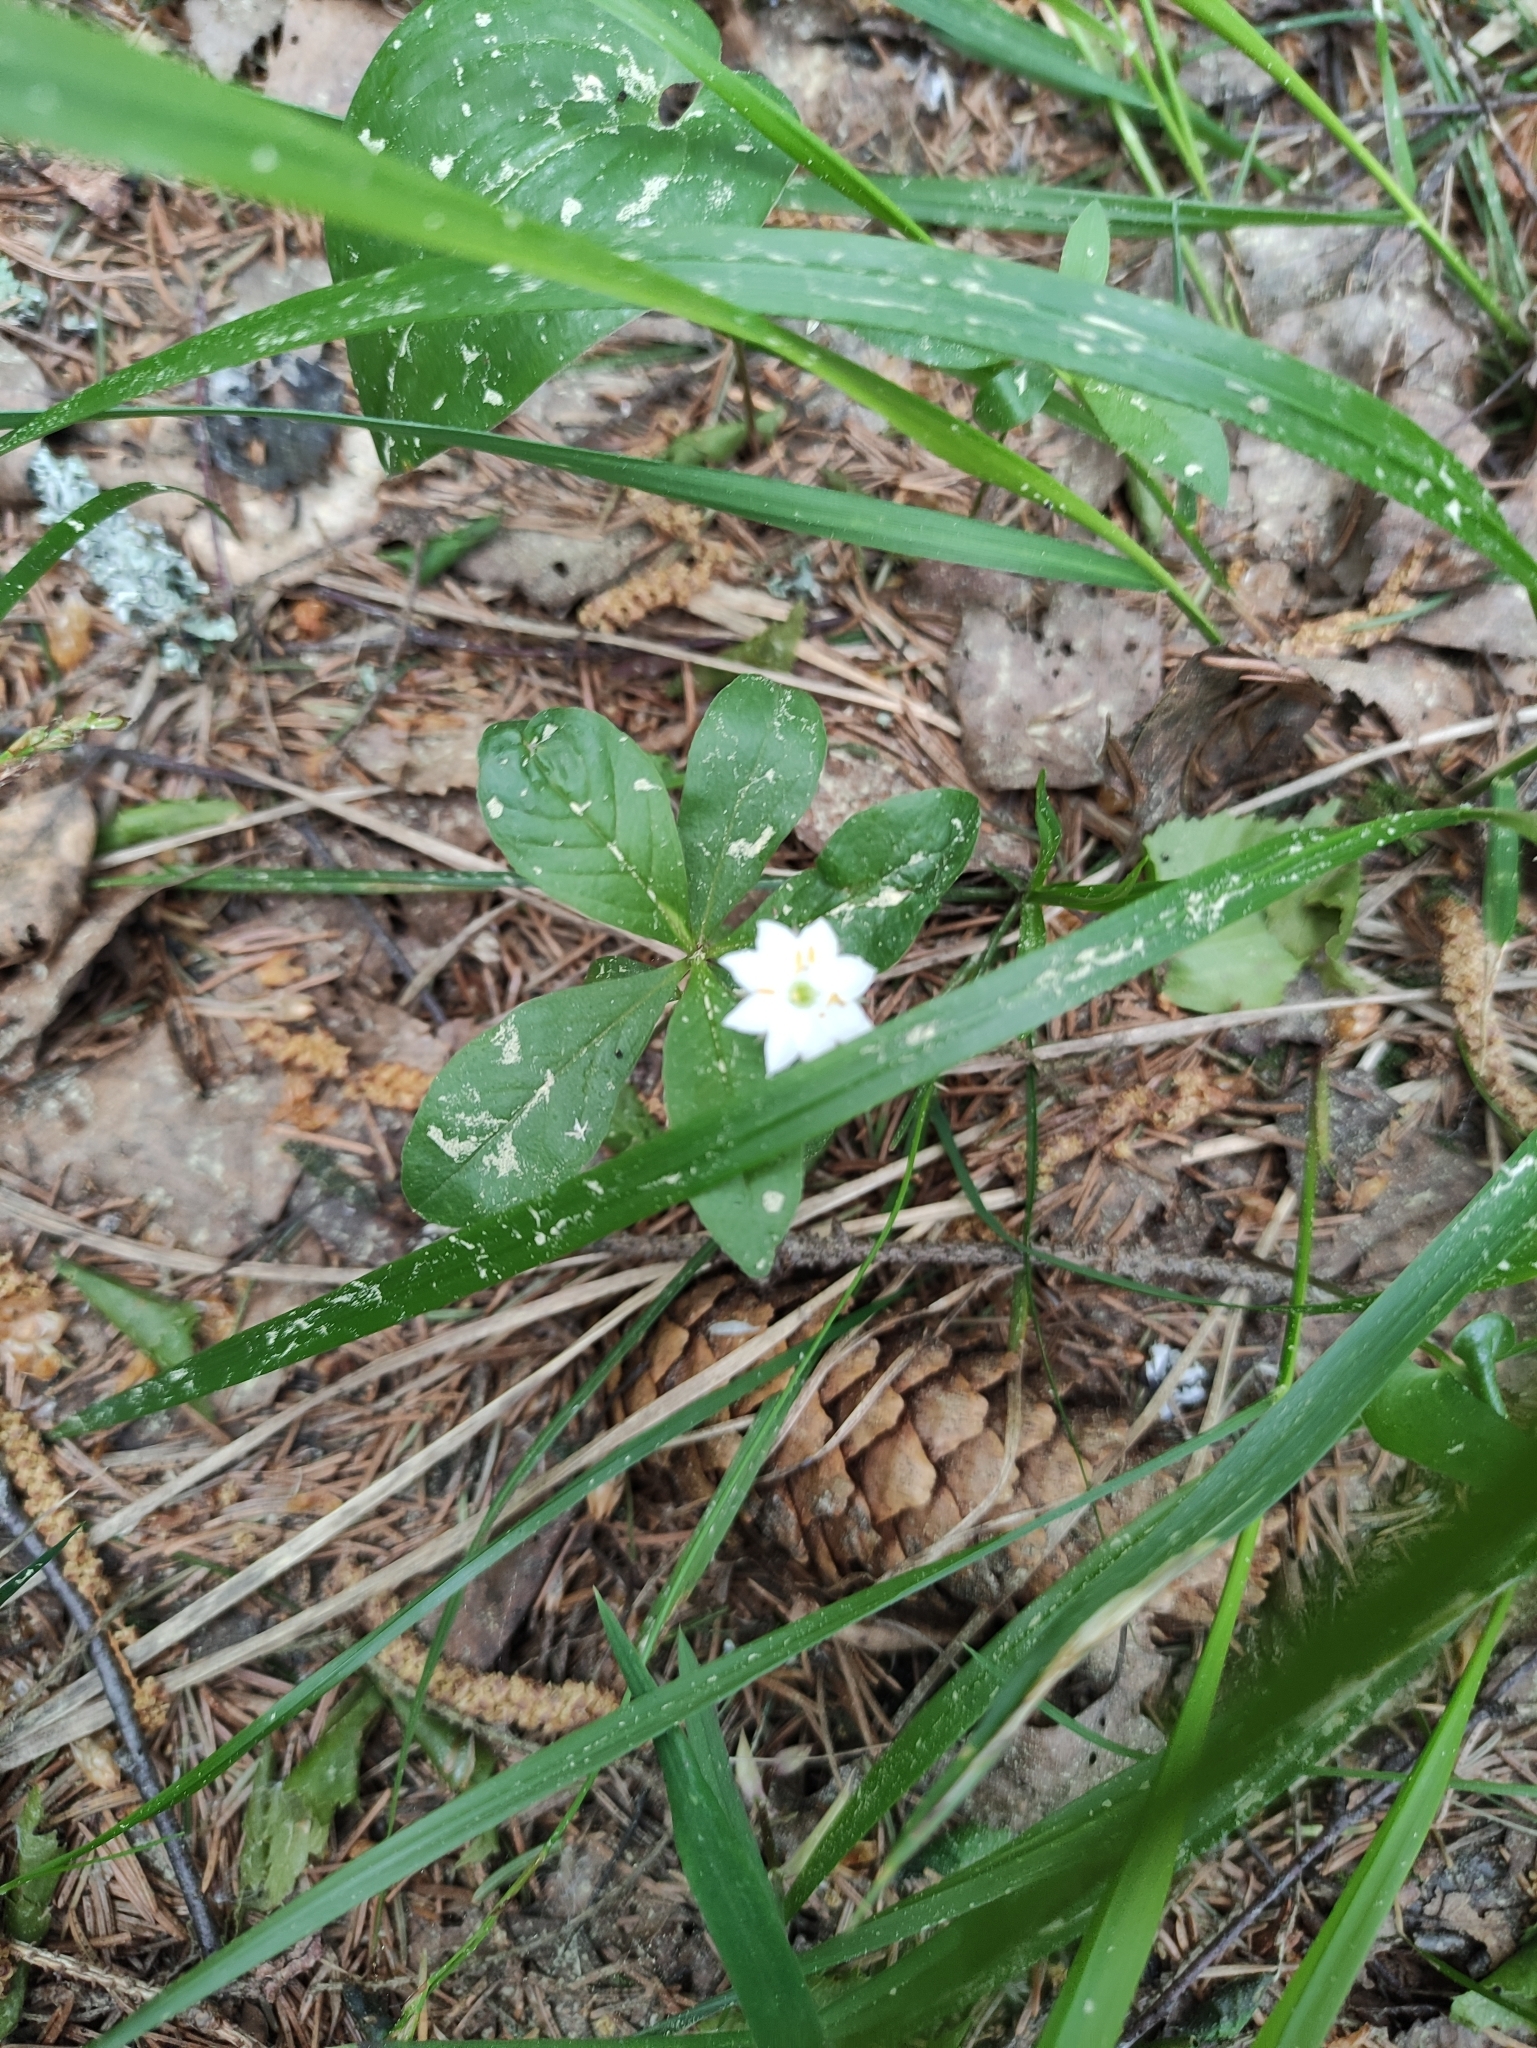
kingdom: Plantae
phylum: Tracheophyta
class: Magnoliopsida
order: Ericales
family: Primulaceae
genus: Lysimachia
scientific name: Lysimachia europaea
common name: Arctic starflower
